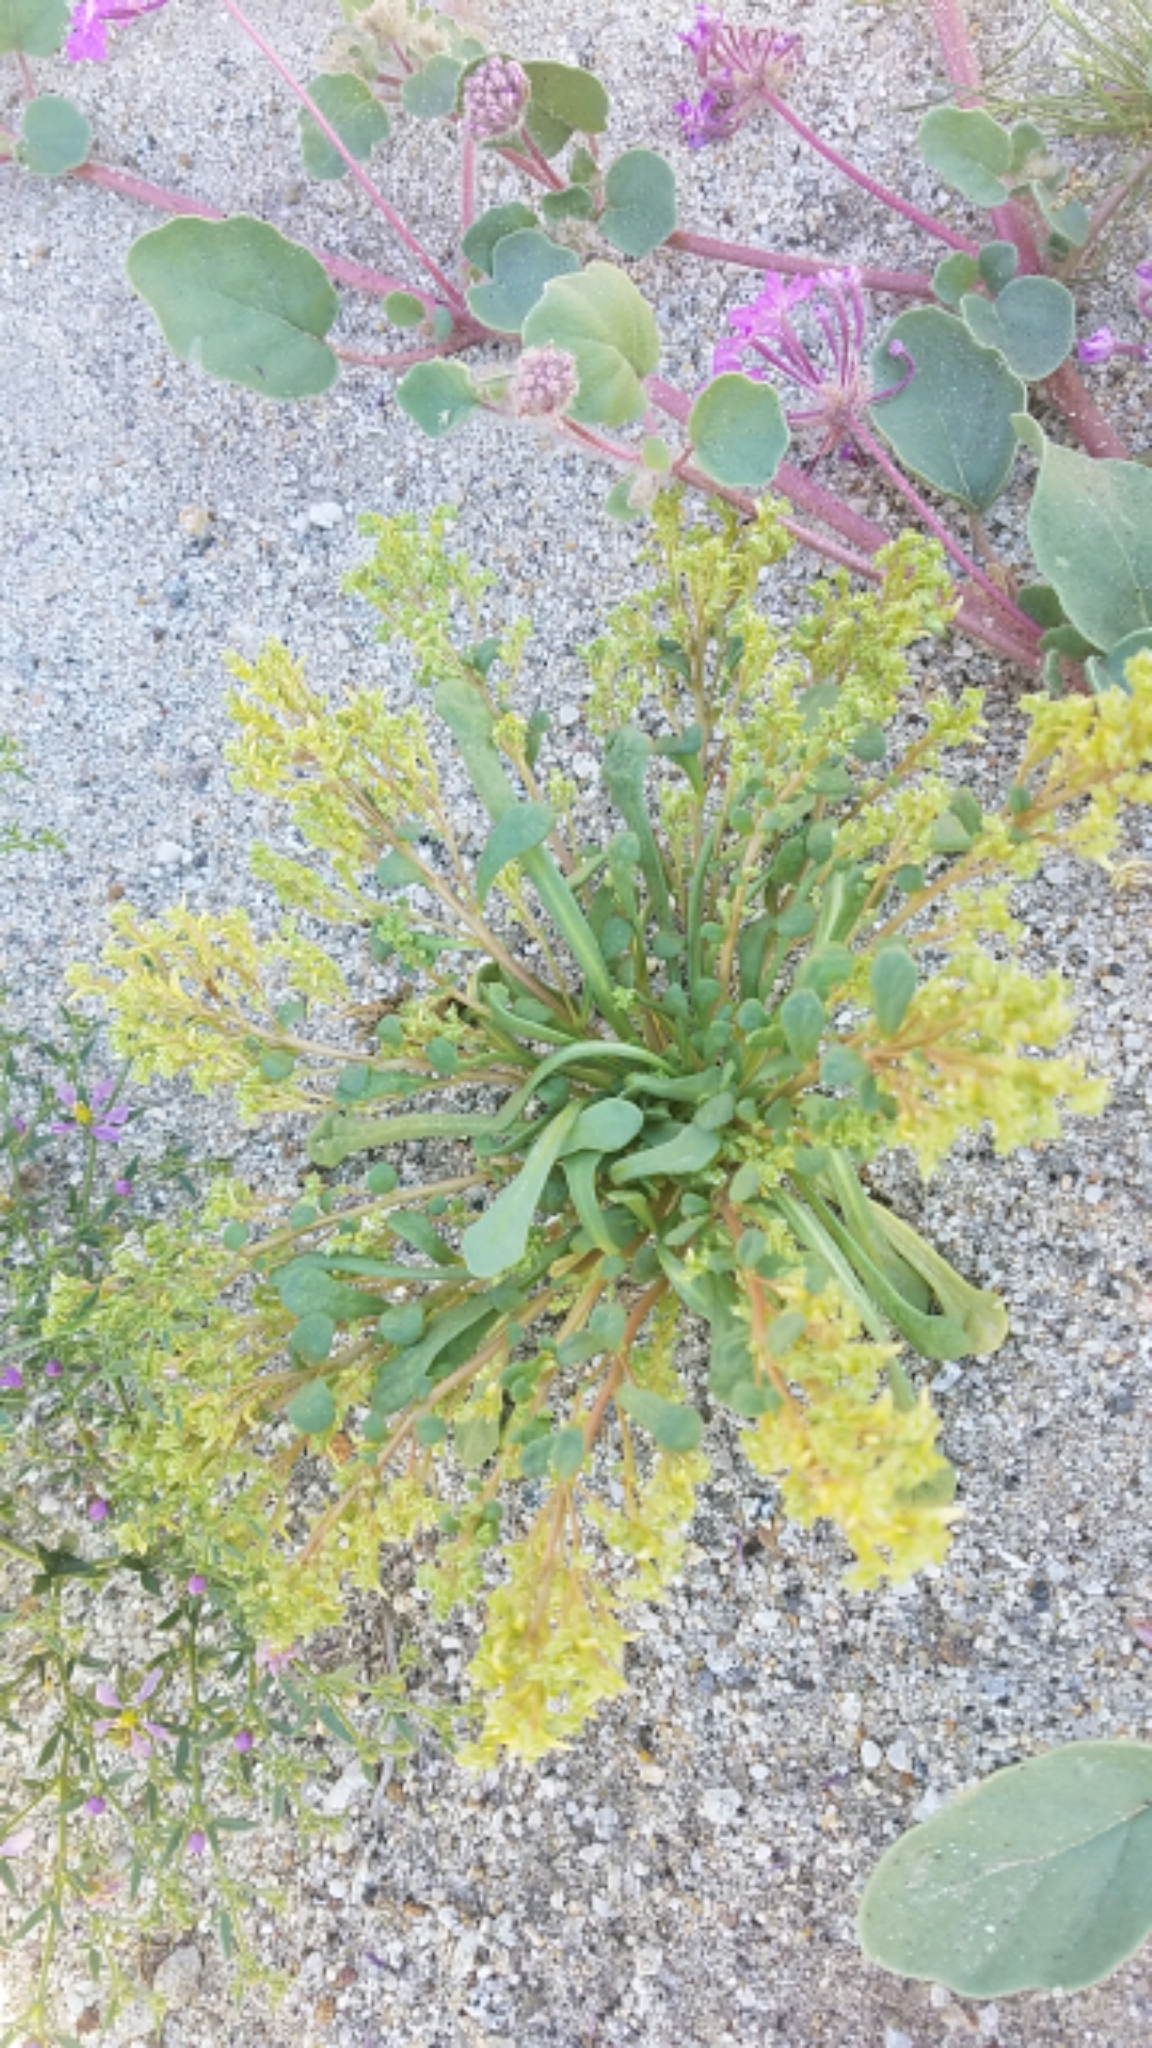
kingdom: Plantae
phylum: Tracheophyta
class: Magnoliopsida
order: Caryophyllales
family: Montiaceae
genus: Calyptridium
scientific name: Calyptridium monandrum
